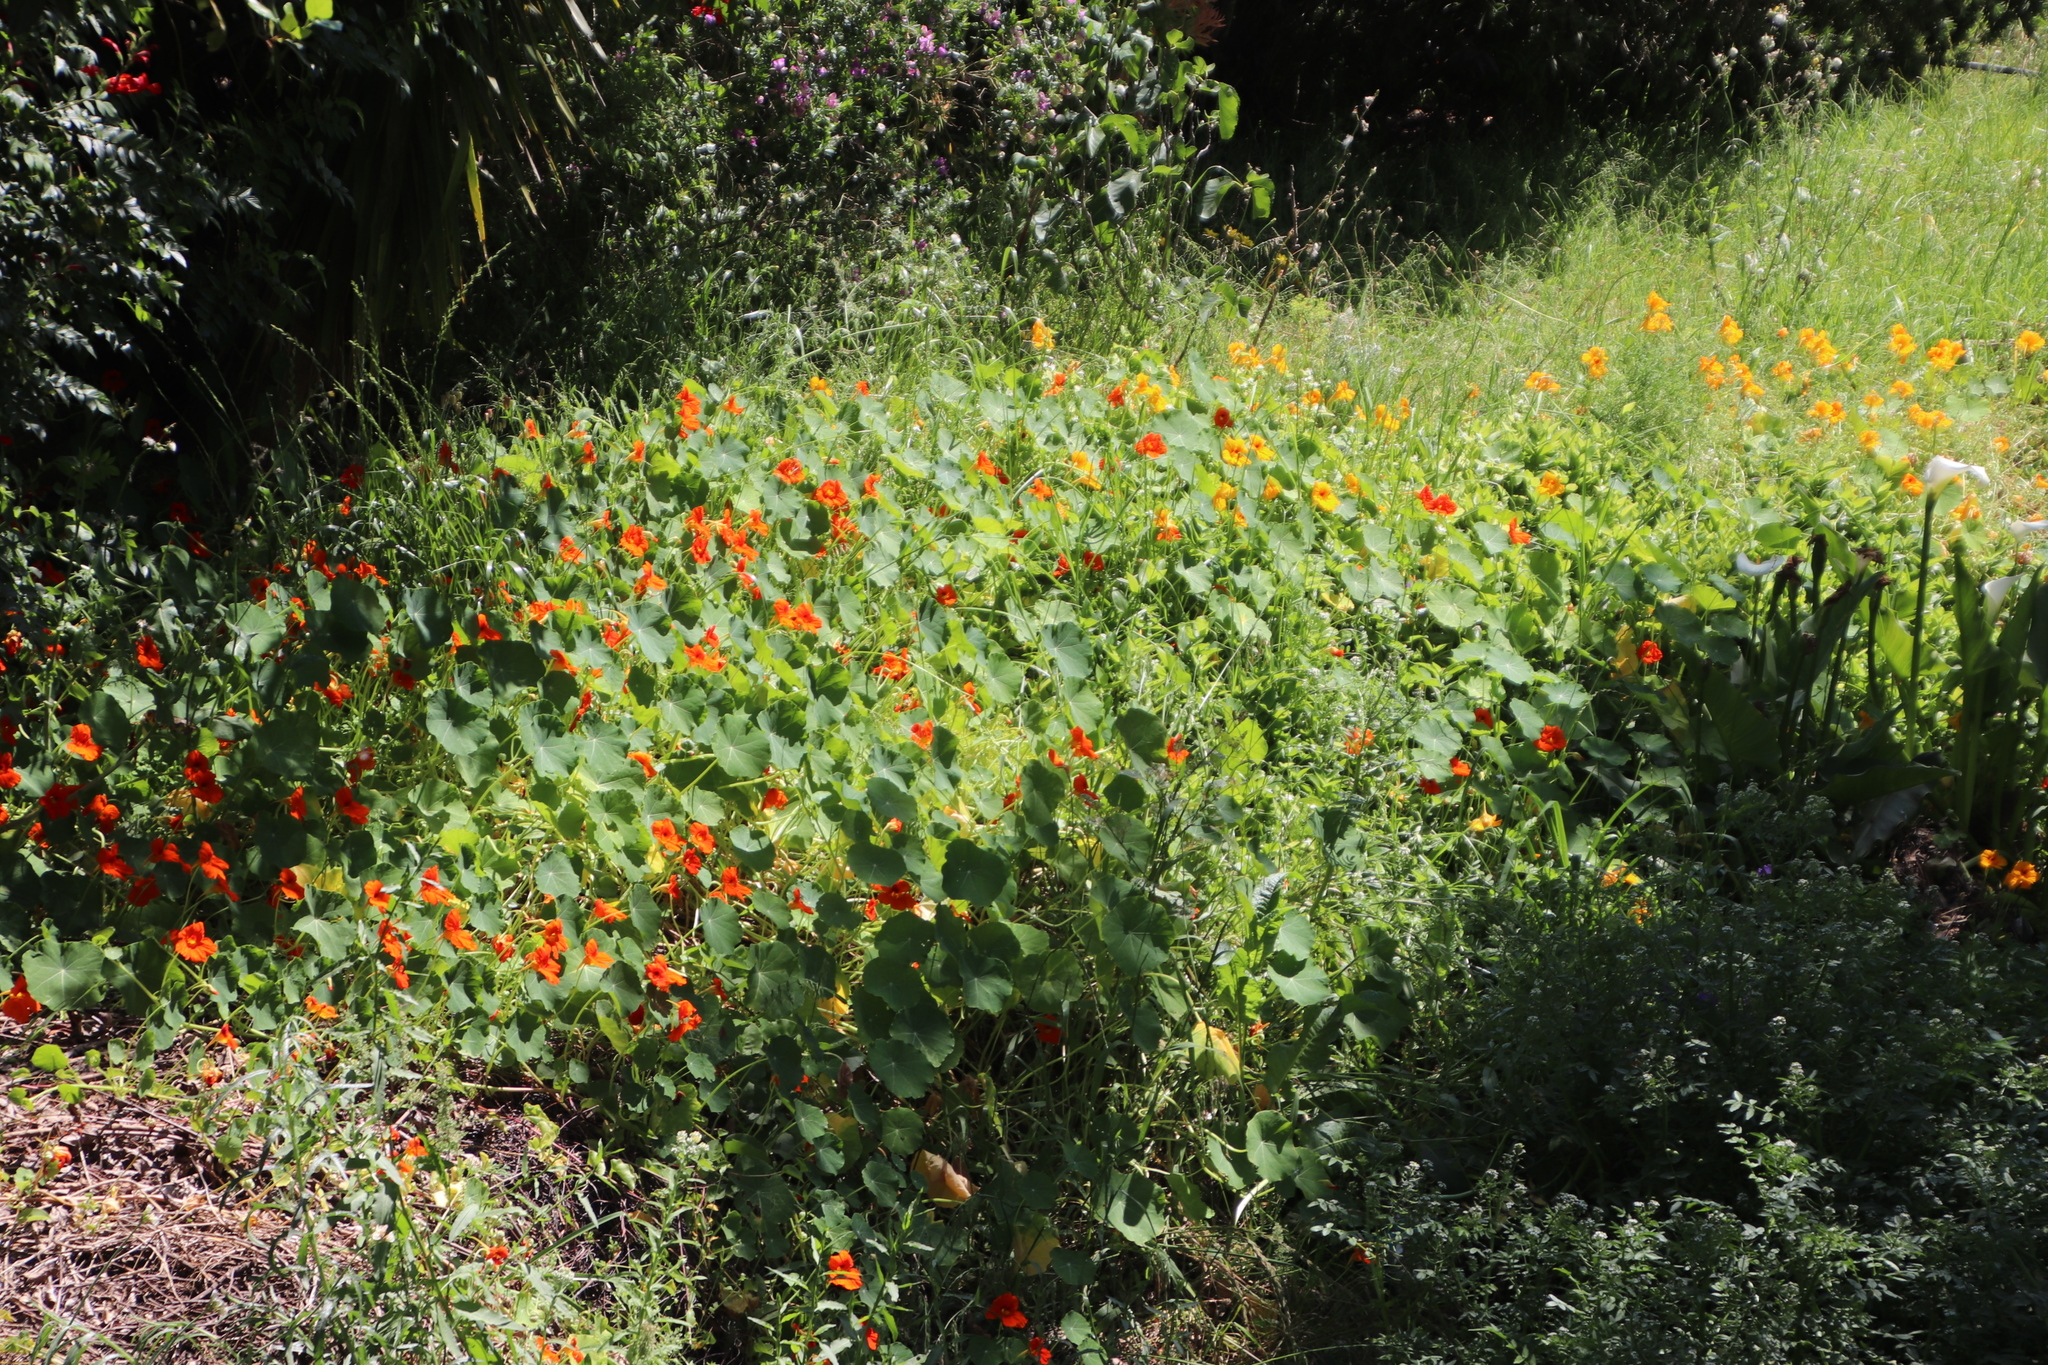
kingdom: Plantae
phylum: Tracheophyta
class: Magnoliopsida
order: Brassicales
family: Tropaeolaceae
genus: Tropaeolum
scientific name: Tropaeolum majus
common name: Nasturtium
